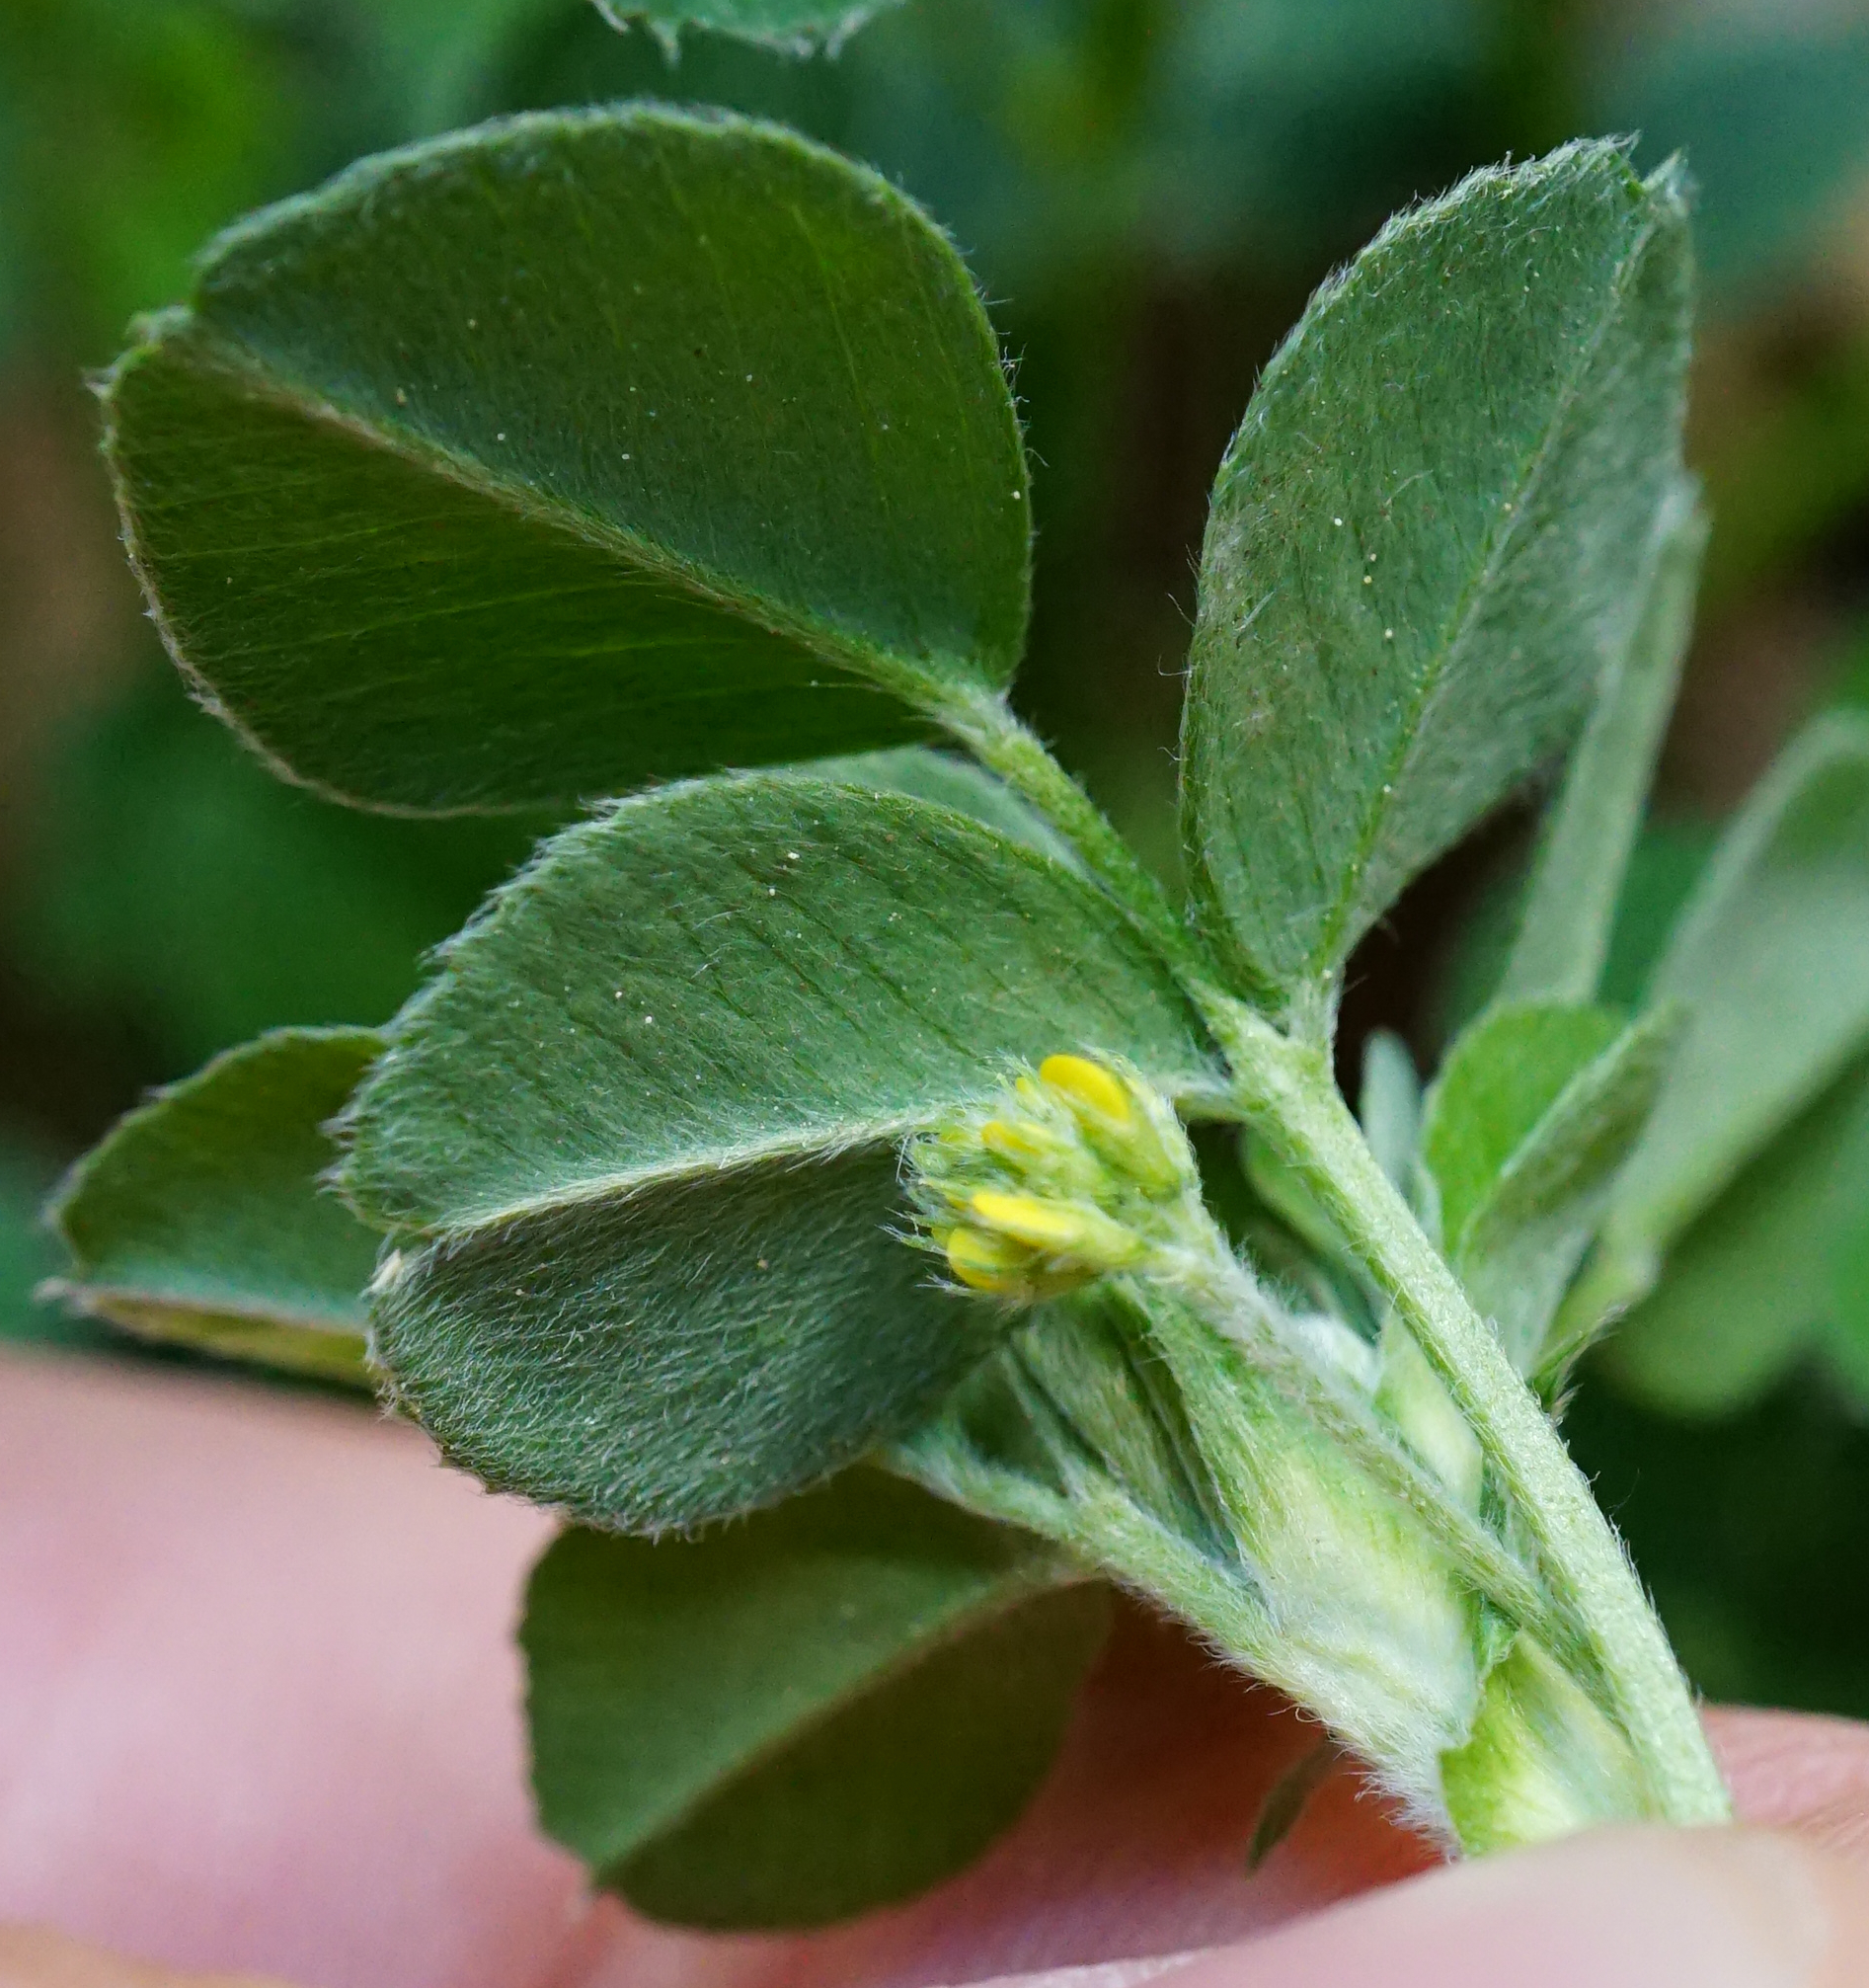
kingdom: Plantae
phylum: Tracheophyta
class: Magnoliopsida
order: Fabales
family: Fabaceae
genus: Medicago
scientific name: Medicago lupulina
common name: Black medick
